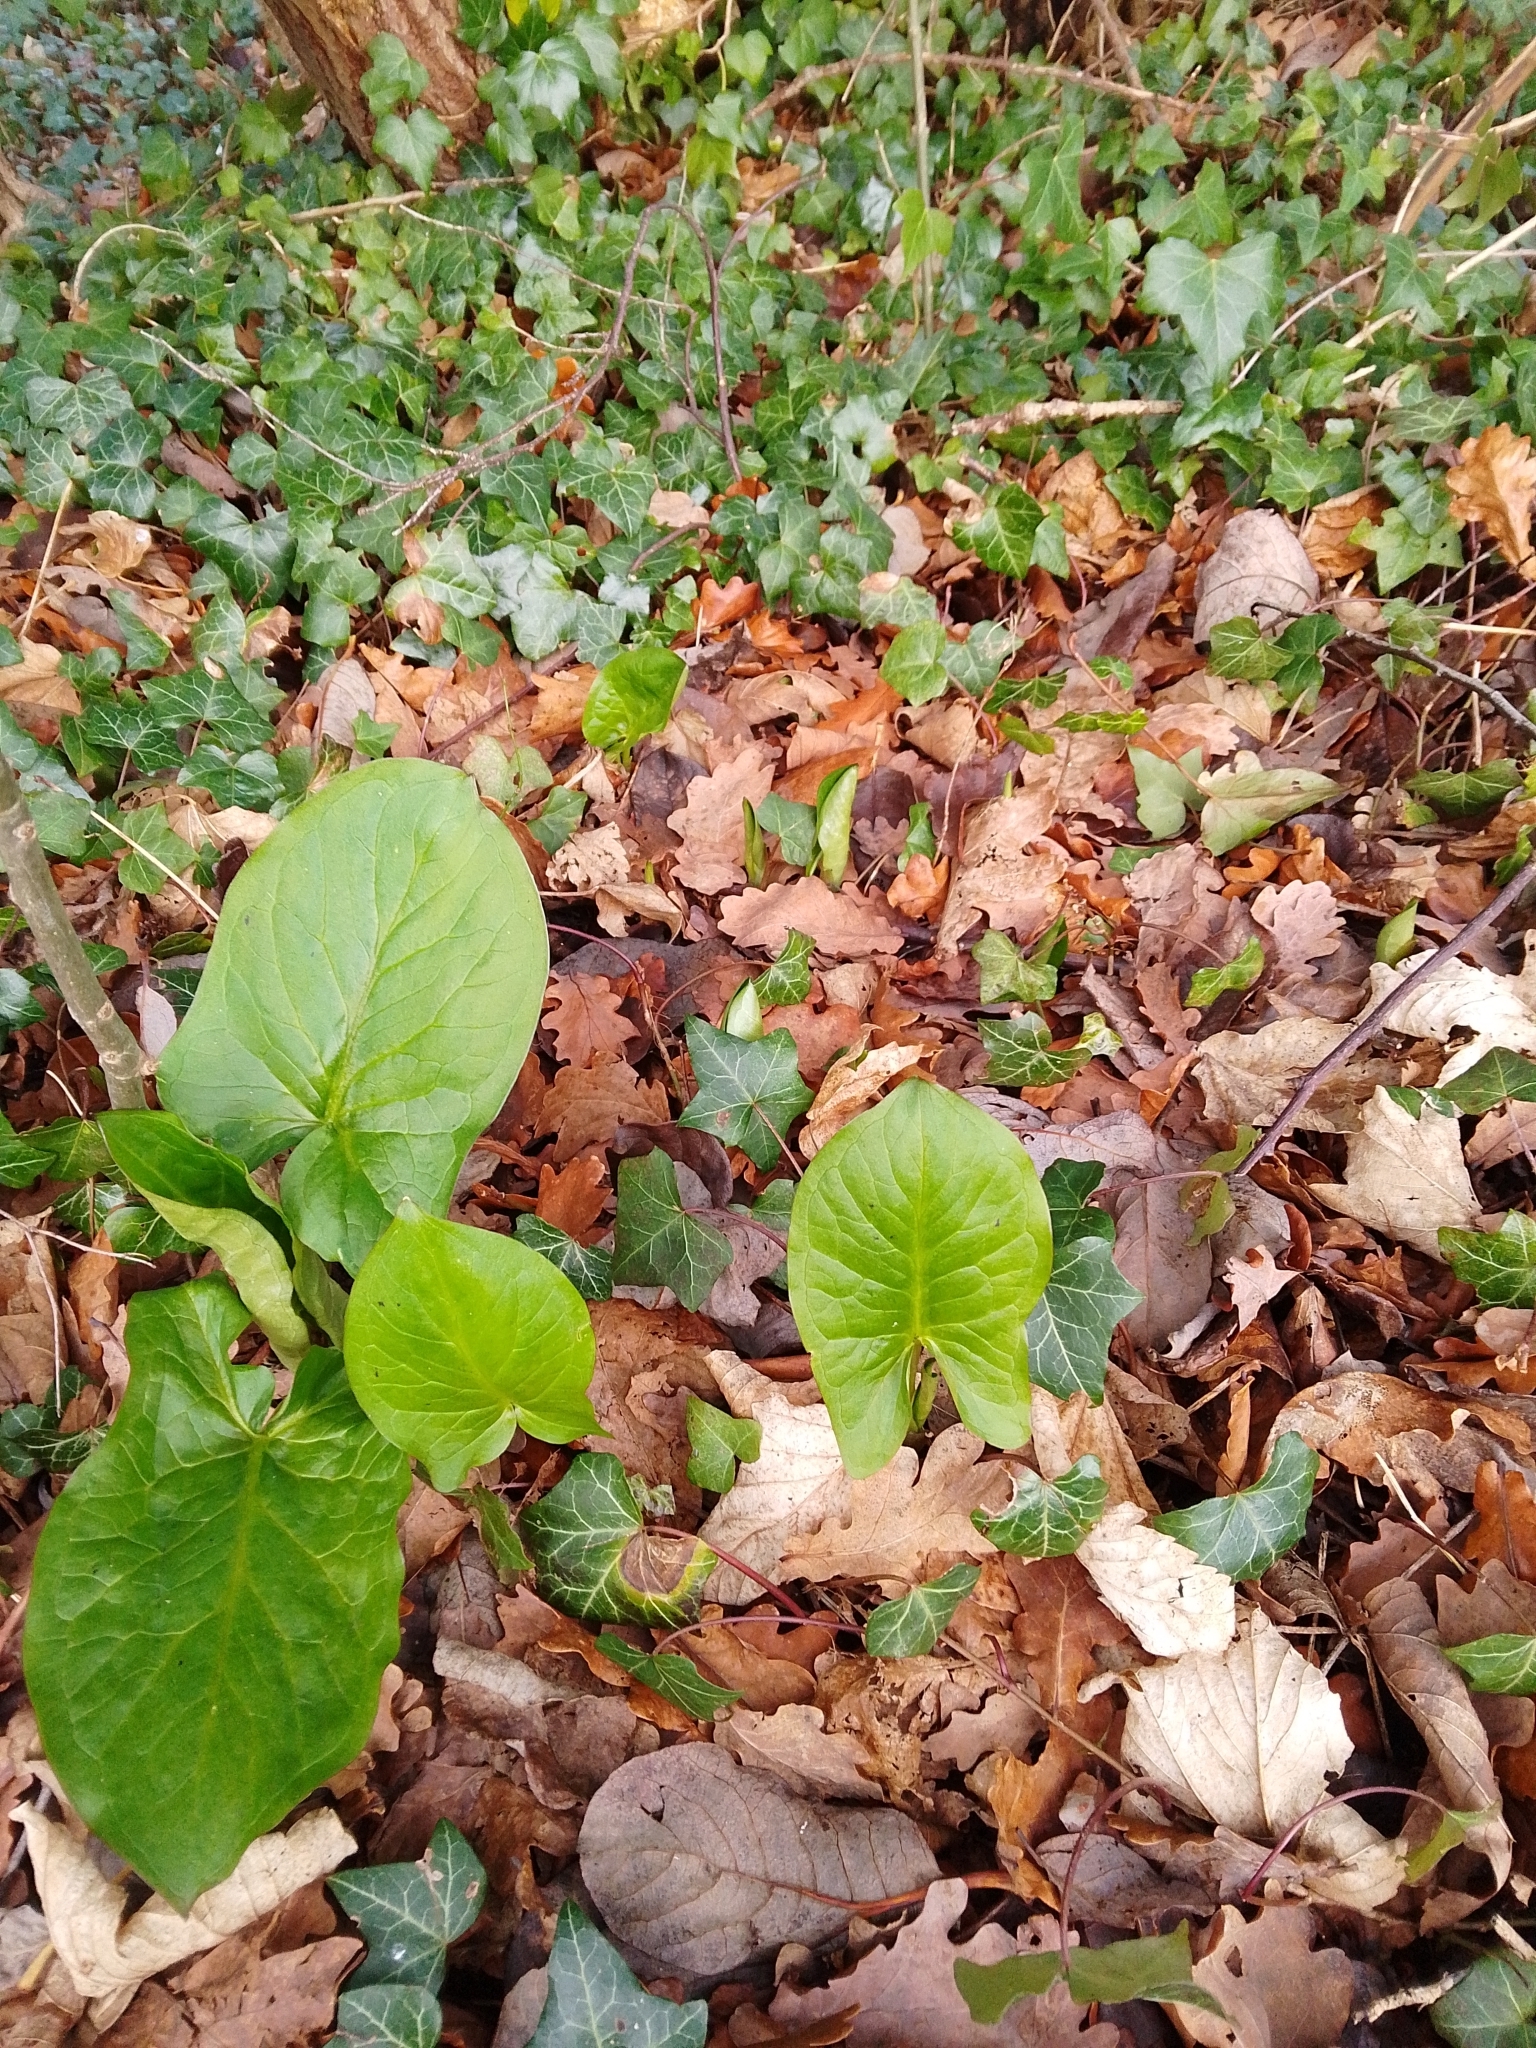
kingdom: Plantae
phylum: Tracheophyta
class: Liliopsida
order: Alismatales
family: Araceae
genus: Arum
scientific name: Arum maculatum
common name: Lords-and-ladies
